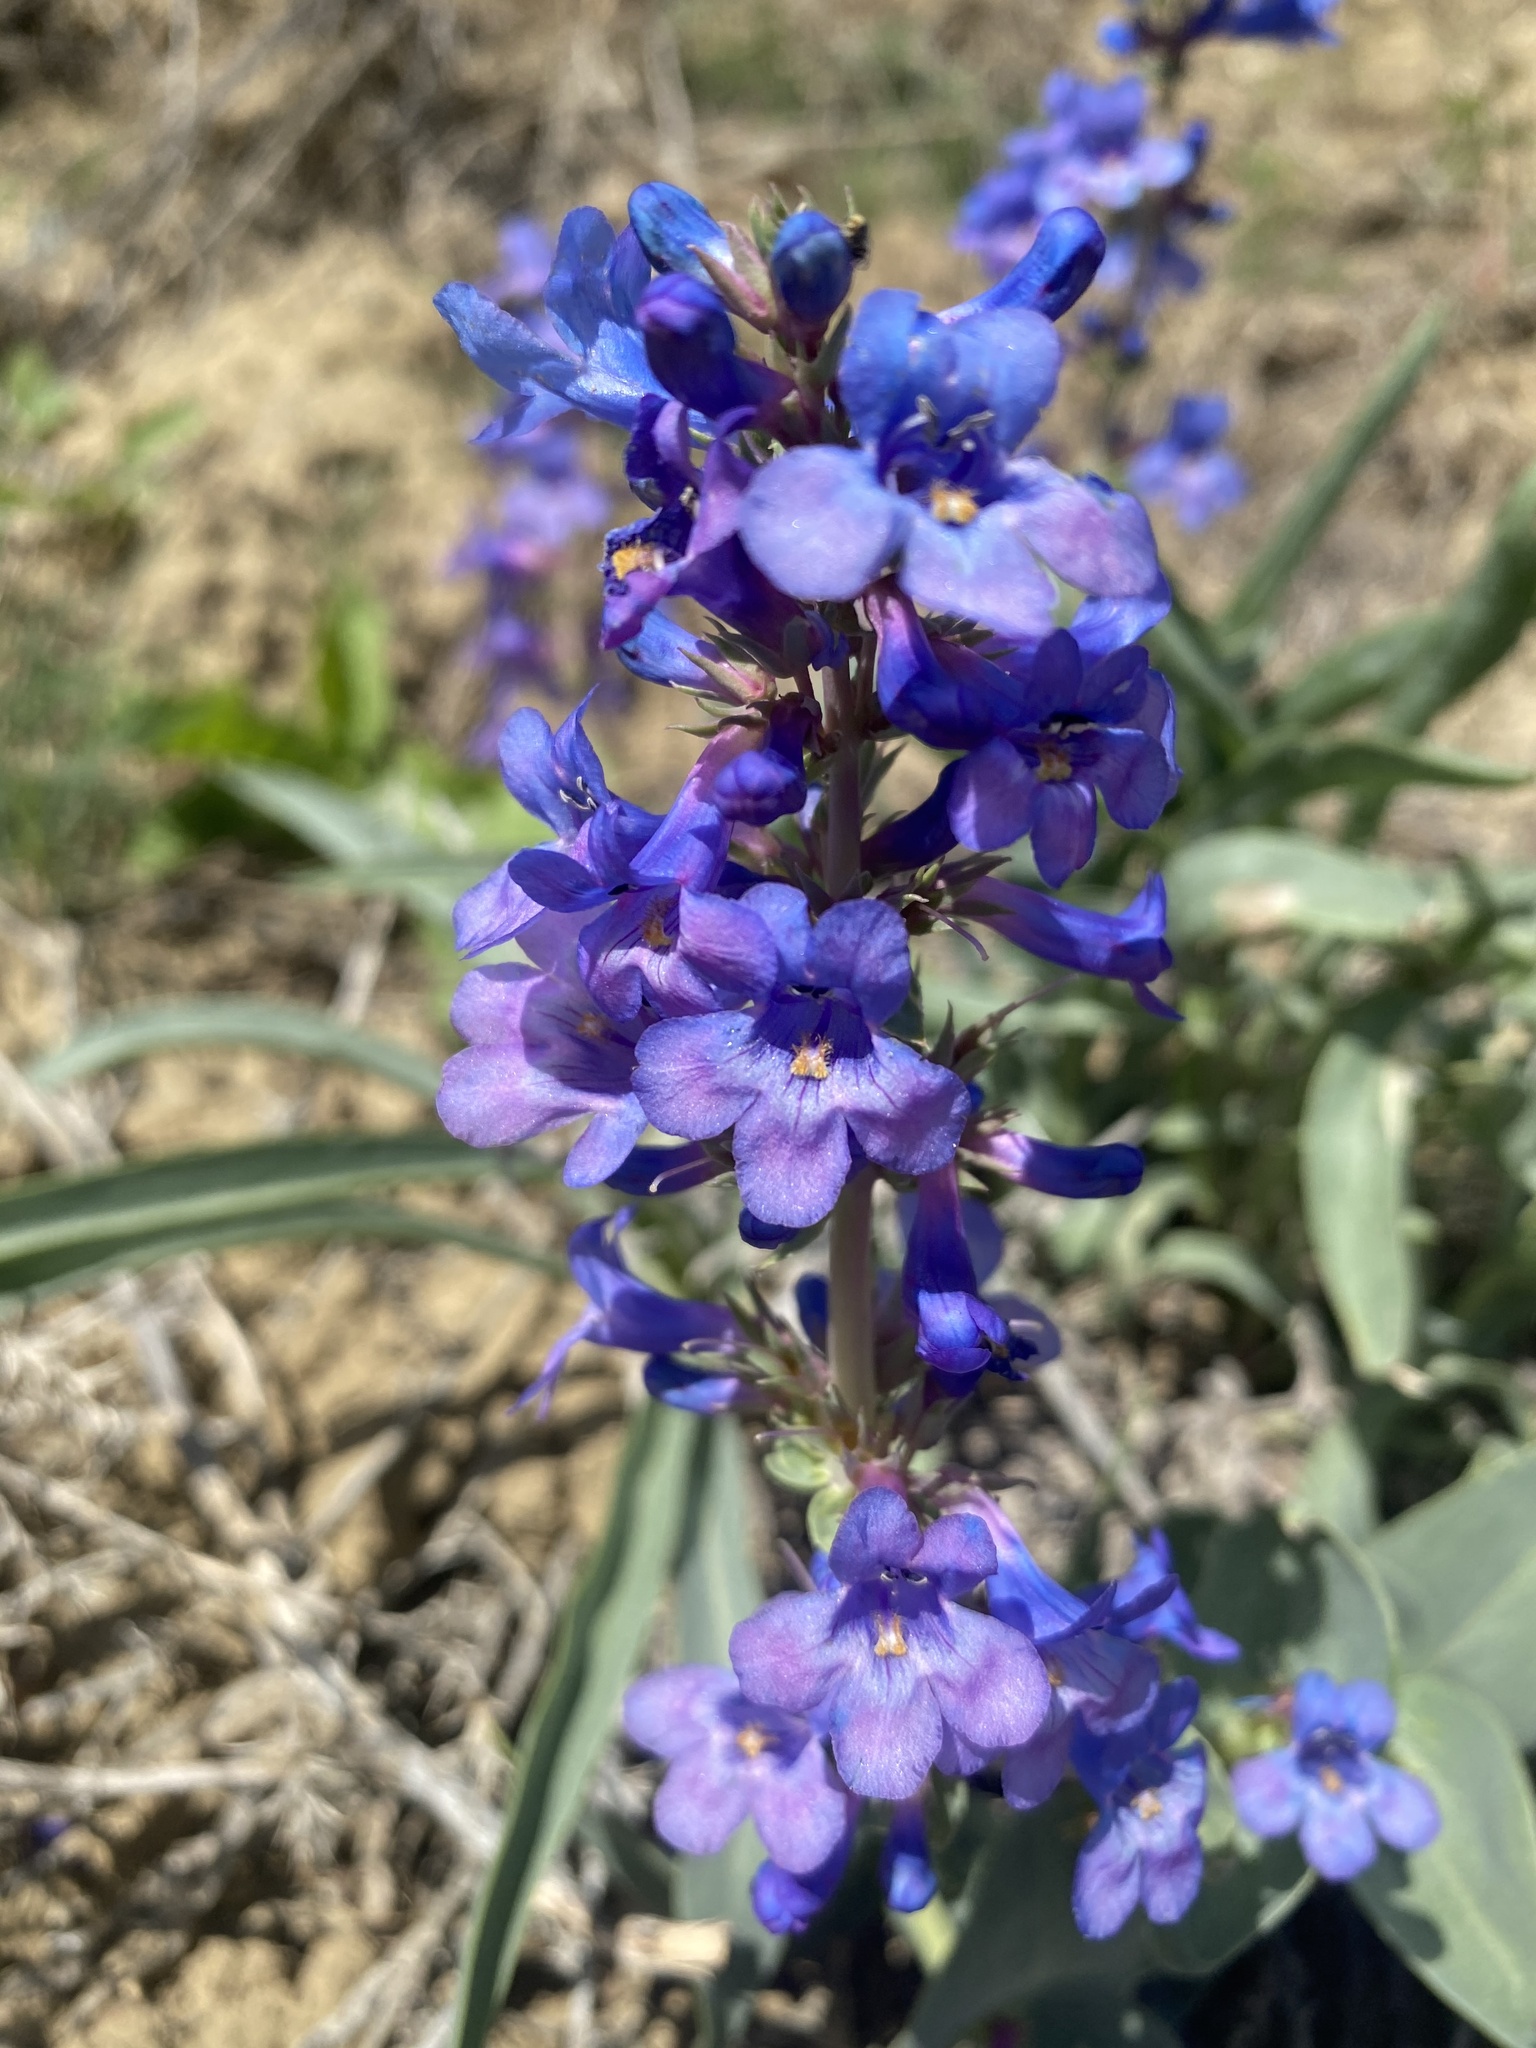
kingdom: Plantae
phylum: Tracheophyta
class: Magnoliopsida
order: Lamiales
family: Plantaginaceae
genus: Penstemon
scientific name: Penstemon nitidus
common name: Shining penstemon
